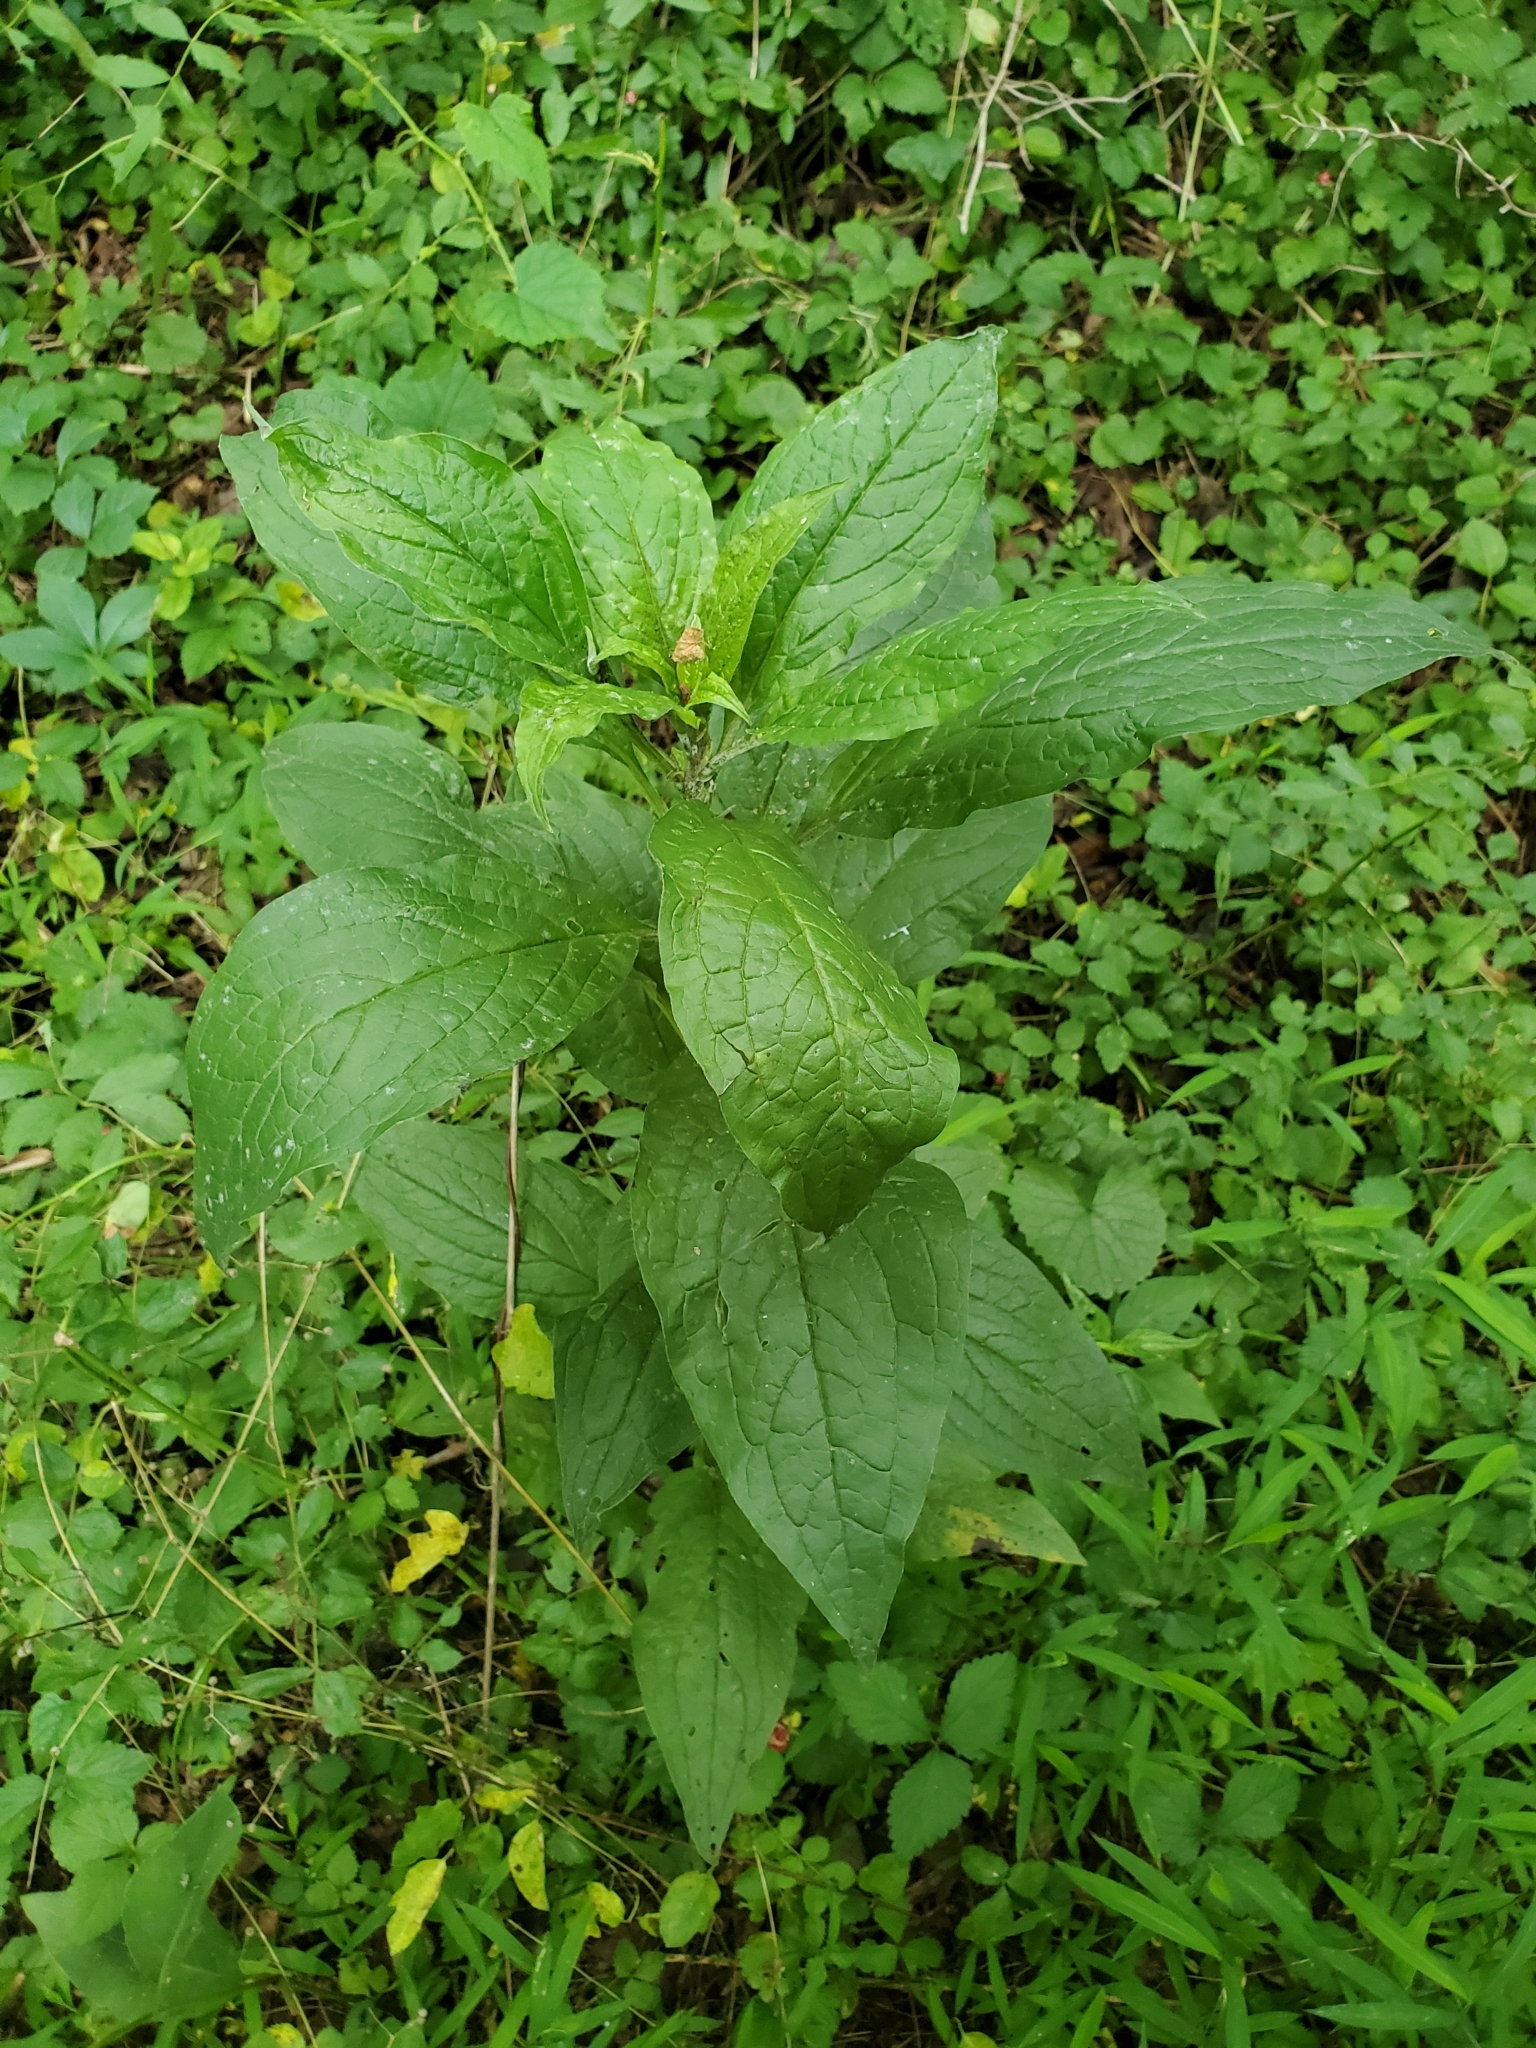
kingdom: Plantae
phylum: Tracheophyta
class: Magnoliopsida
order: Boraginales
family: Boraginaceae
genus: Hackelia
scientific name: Hackelia virginiana
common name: Beggar's-lice
